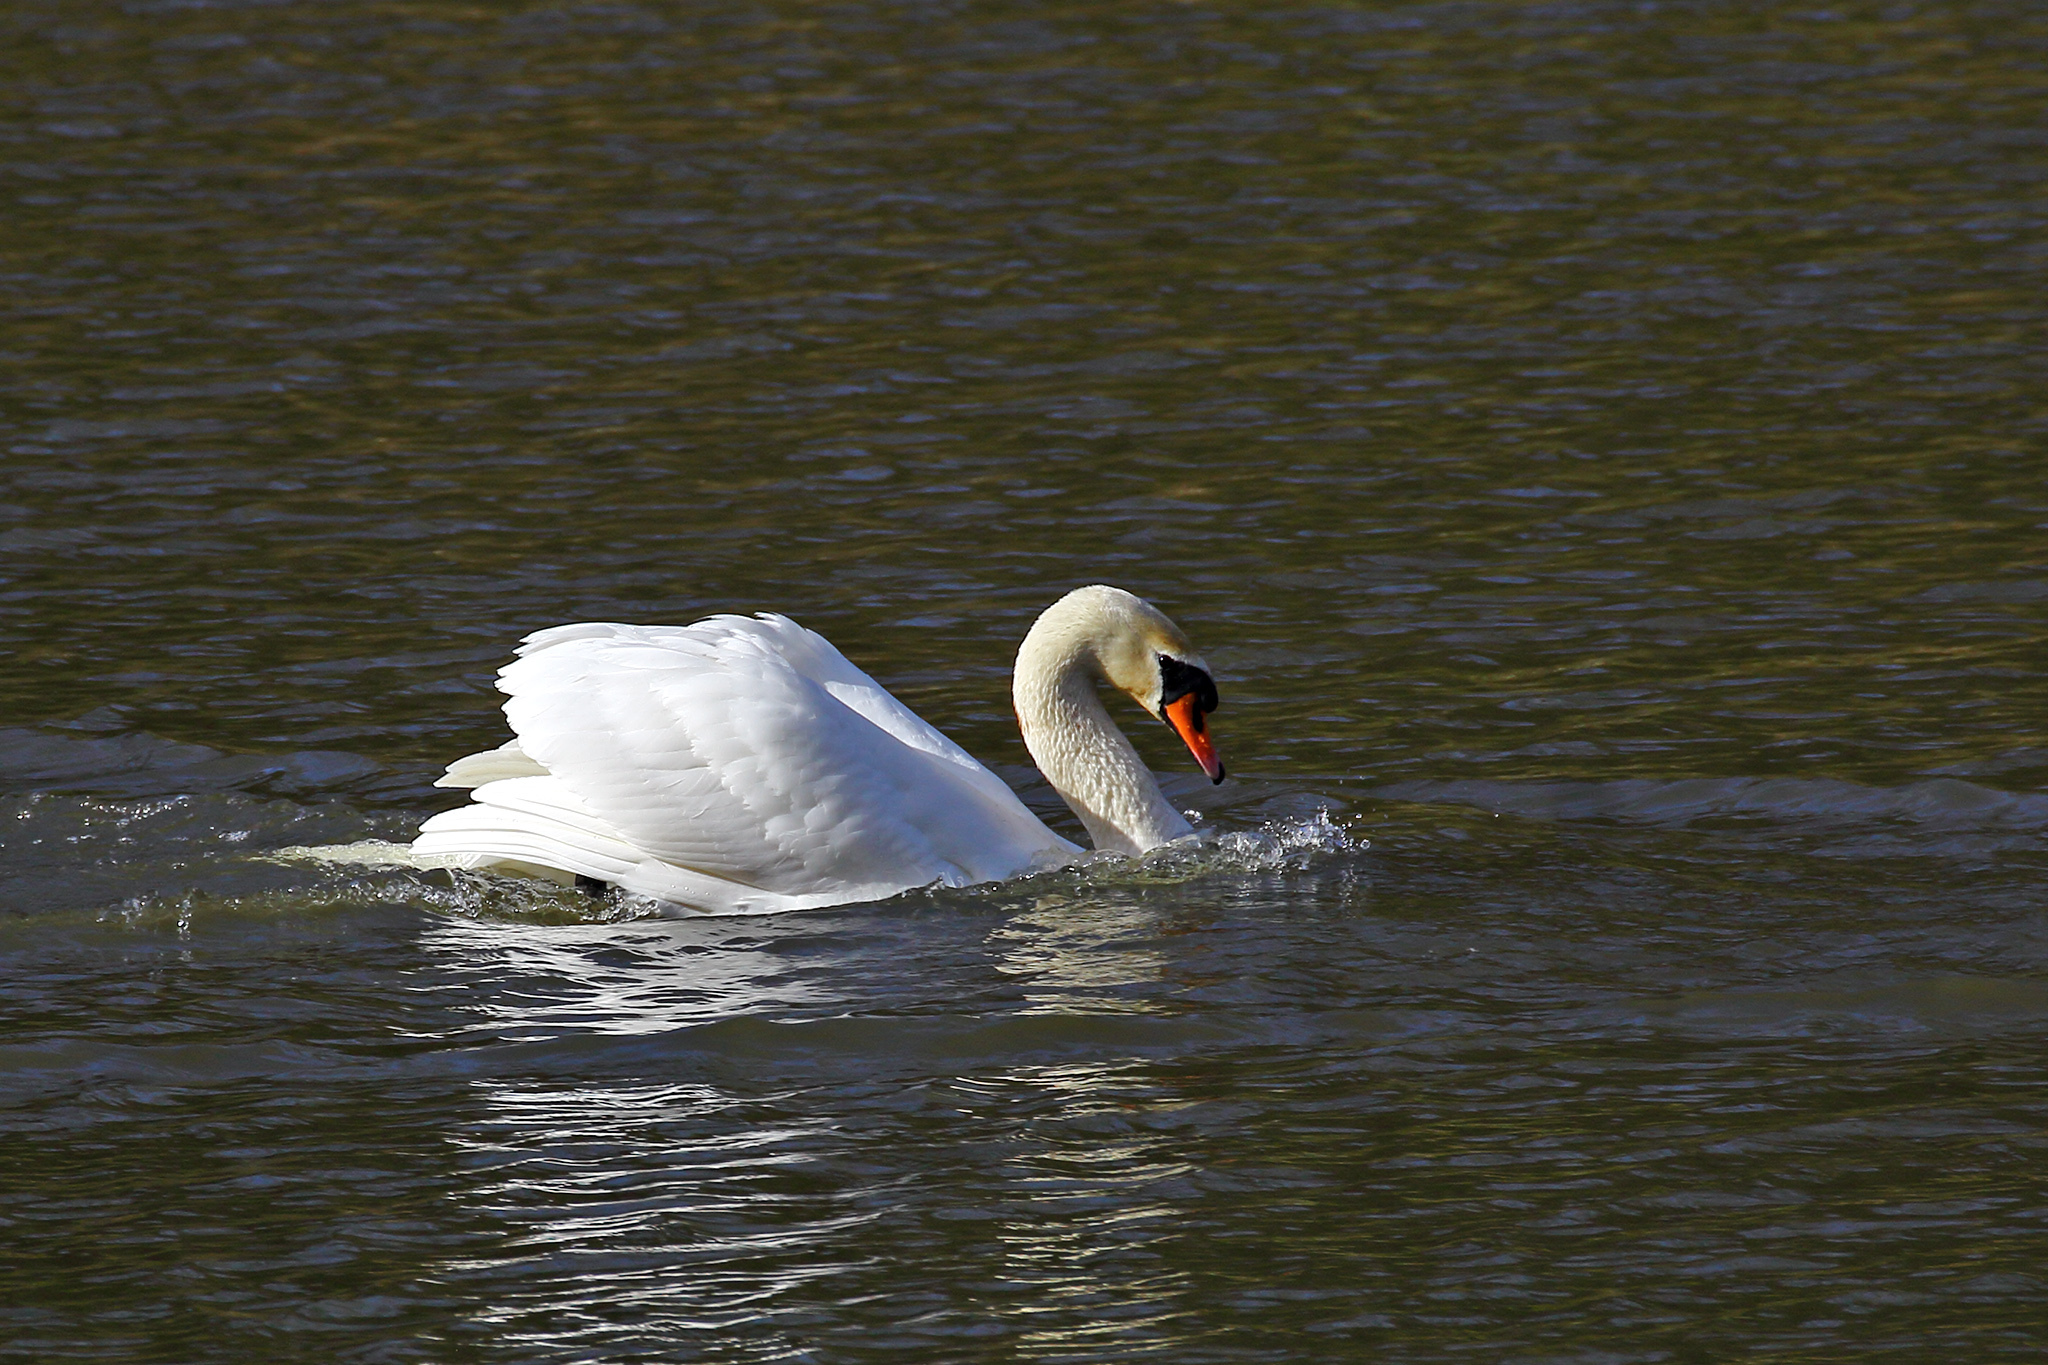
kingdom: Animalia
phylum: Chordata
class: Aves
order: Anseriformes
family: Anatidae
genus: Cygnus
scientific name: Cygnus olor
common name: Mute swan
